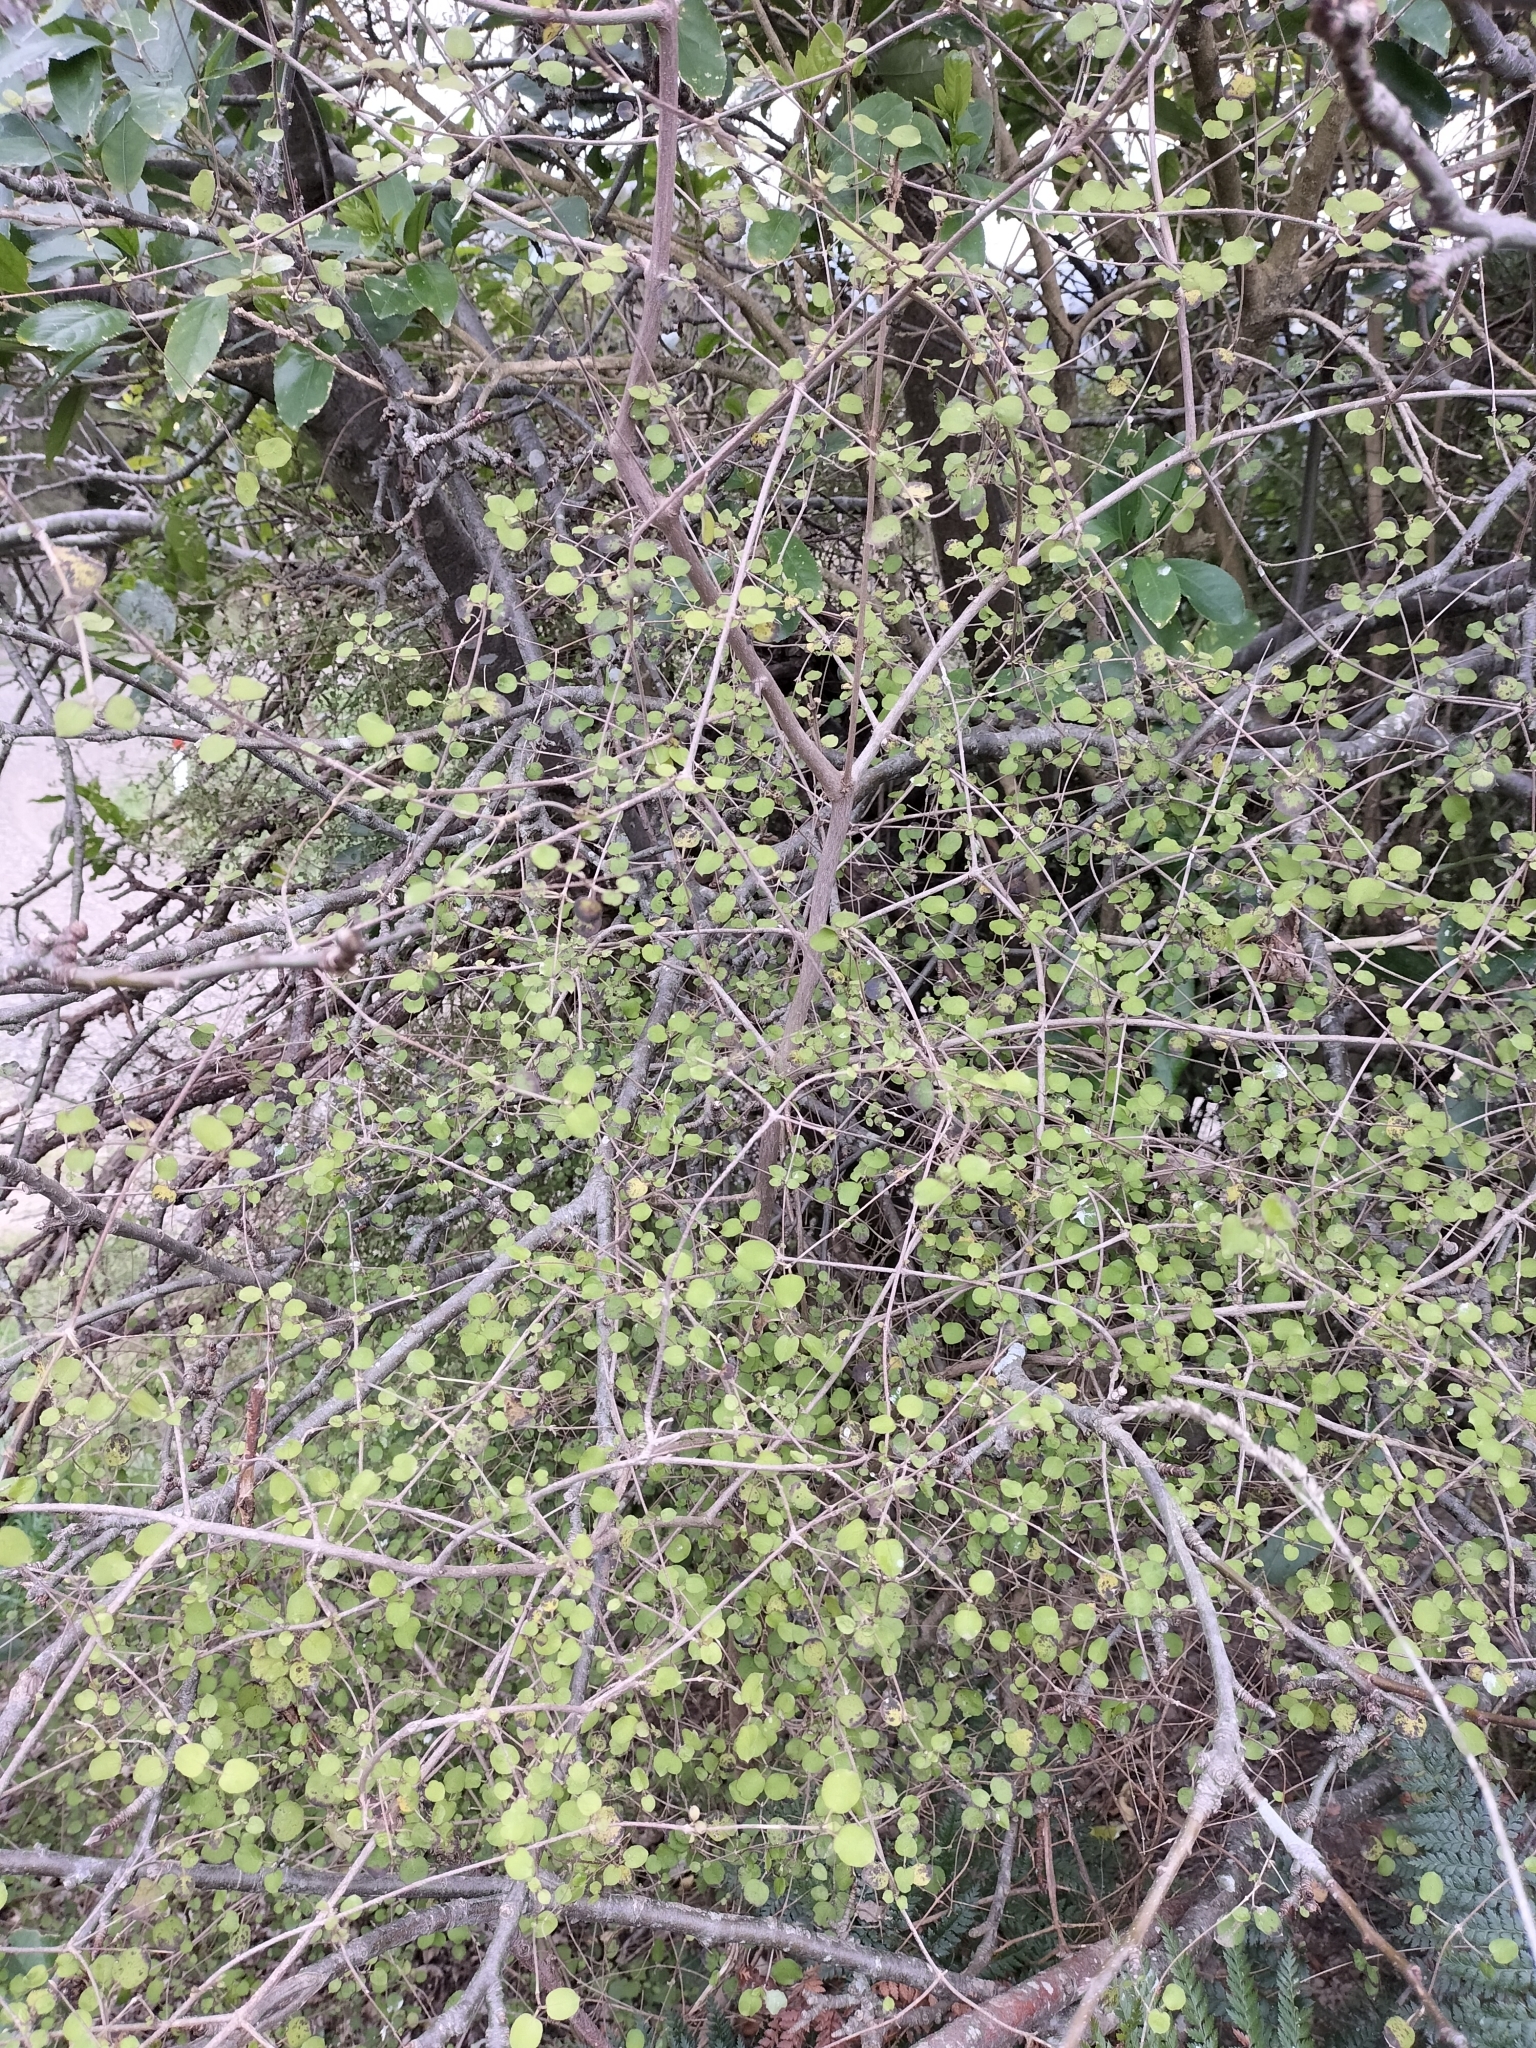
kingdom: Plantae
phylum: Tracheophyta
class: Magnoliopsida
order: Gentianales
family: Rubiaceae
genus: Coprosma
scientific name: Coprosma rotundifolia
